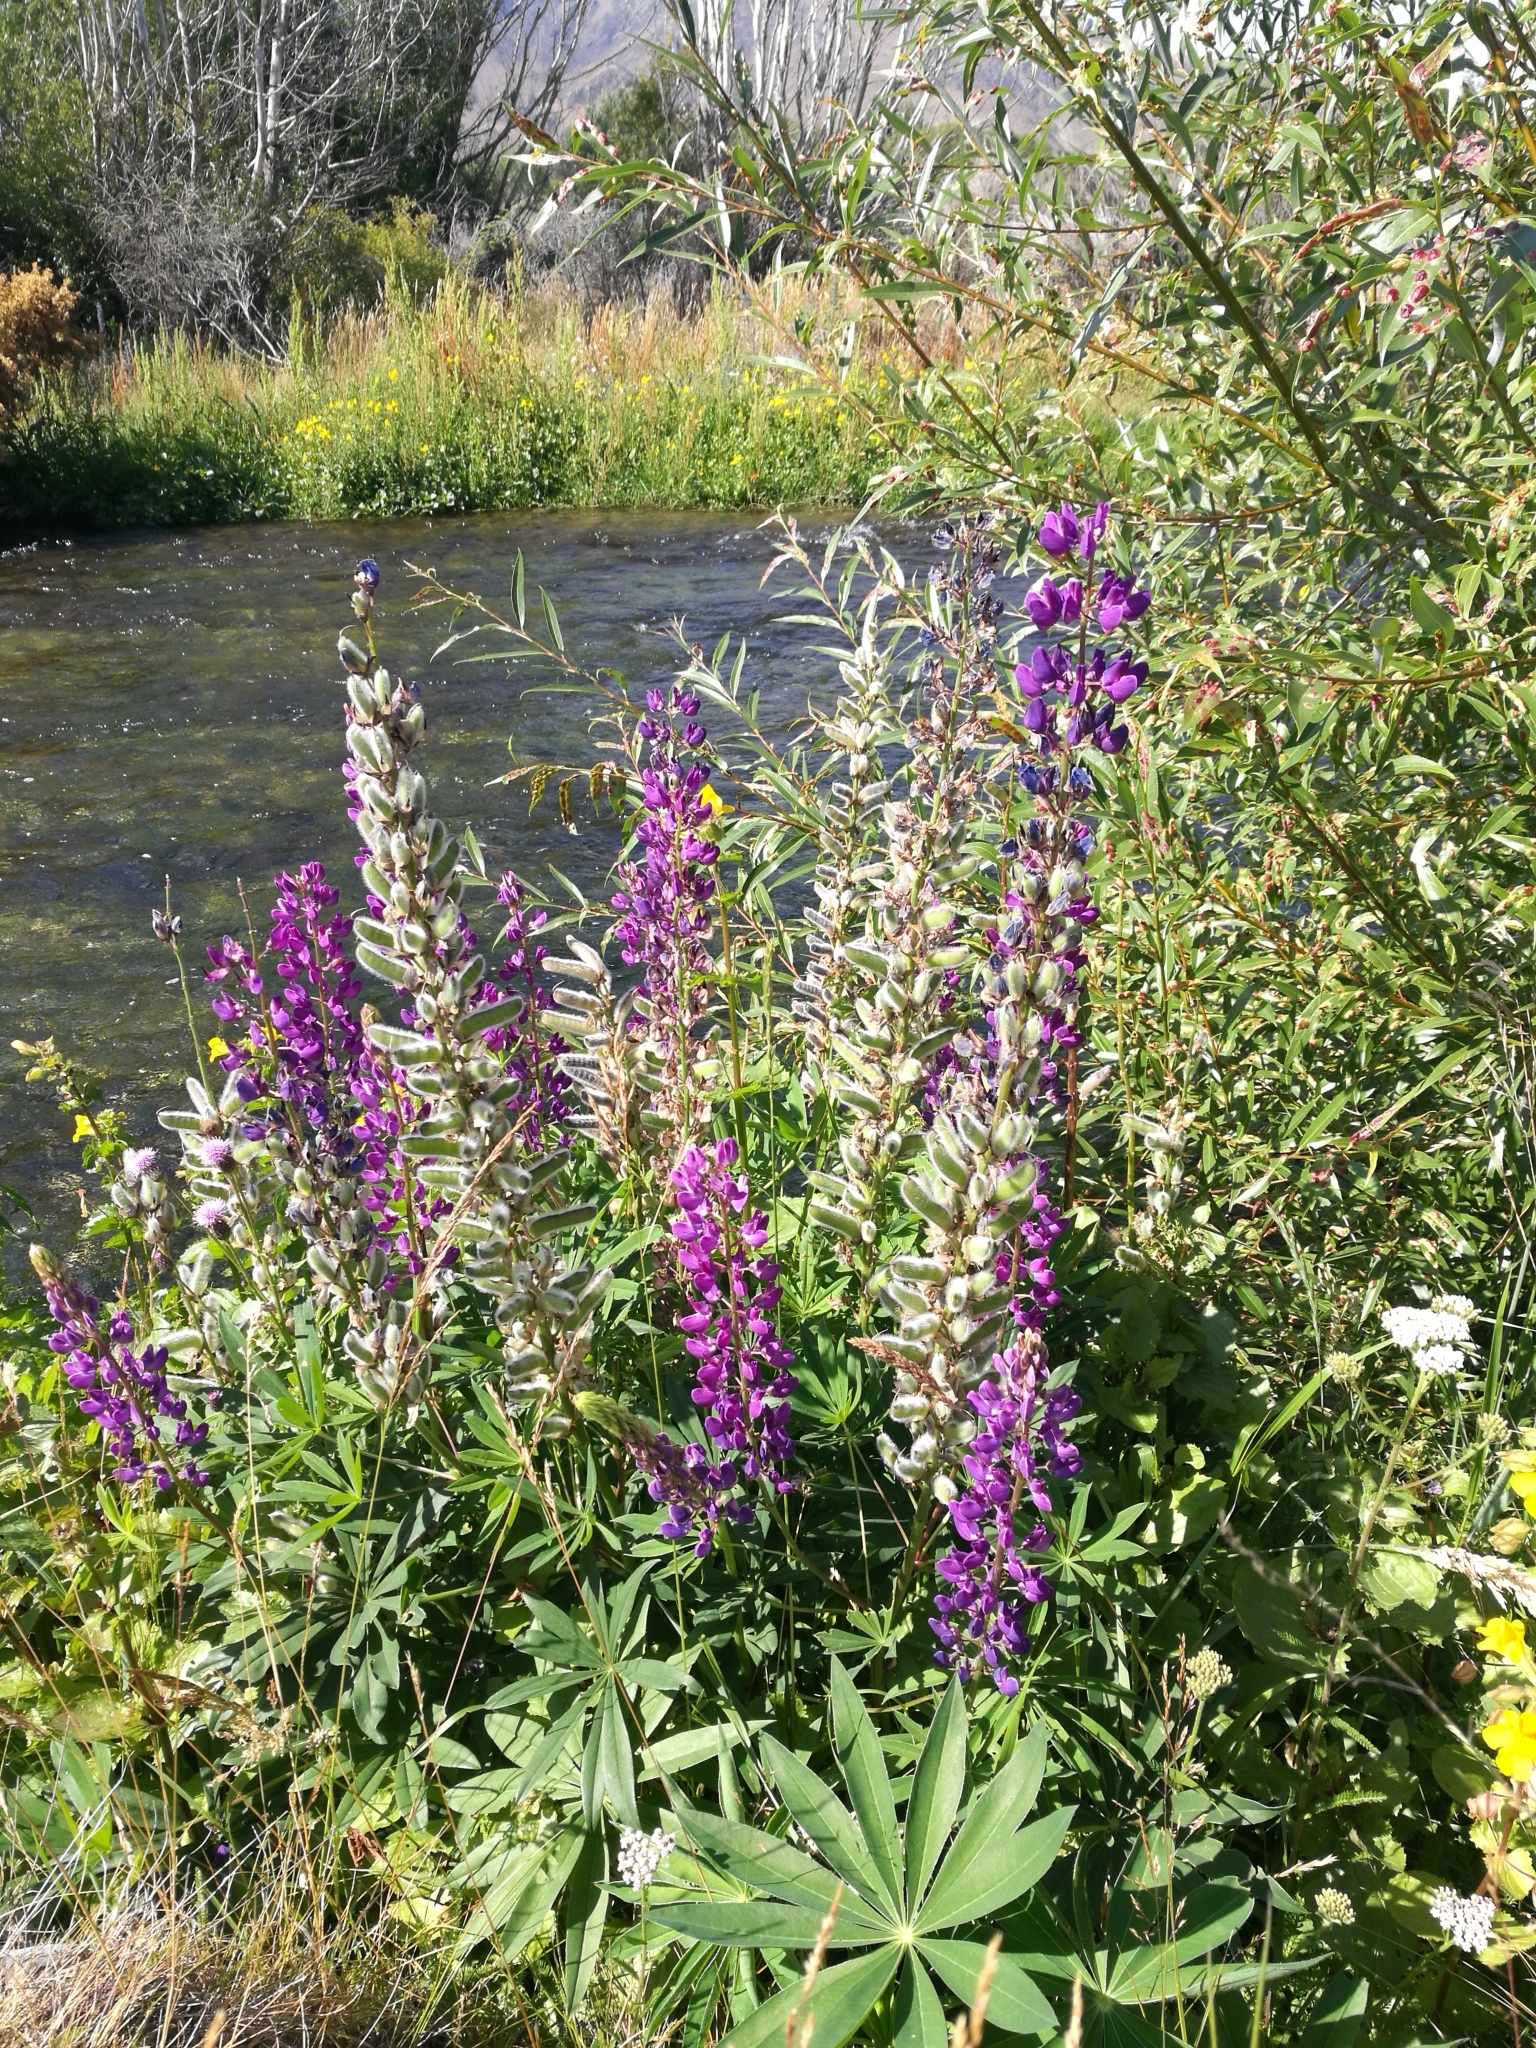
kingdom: Plantae
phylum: Tracheophyta
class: Magnoliopsida
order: Fabales
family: Fabaceae
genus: Lupinus
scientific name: Lupinus polyphyllus
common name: Garden lupin
